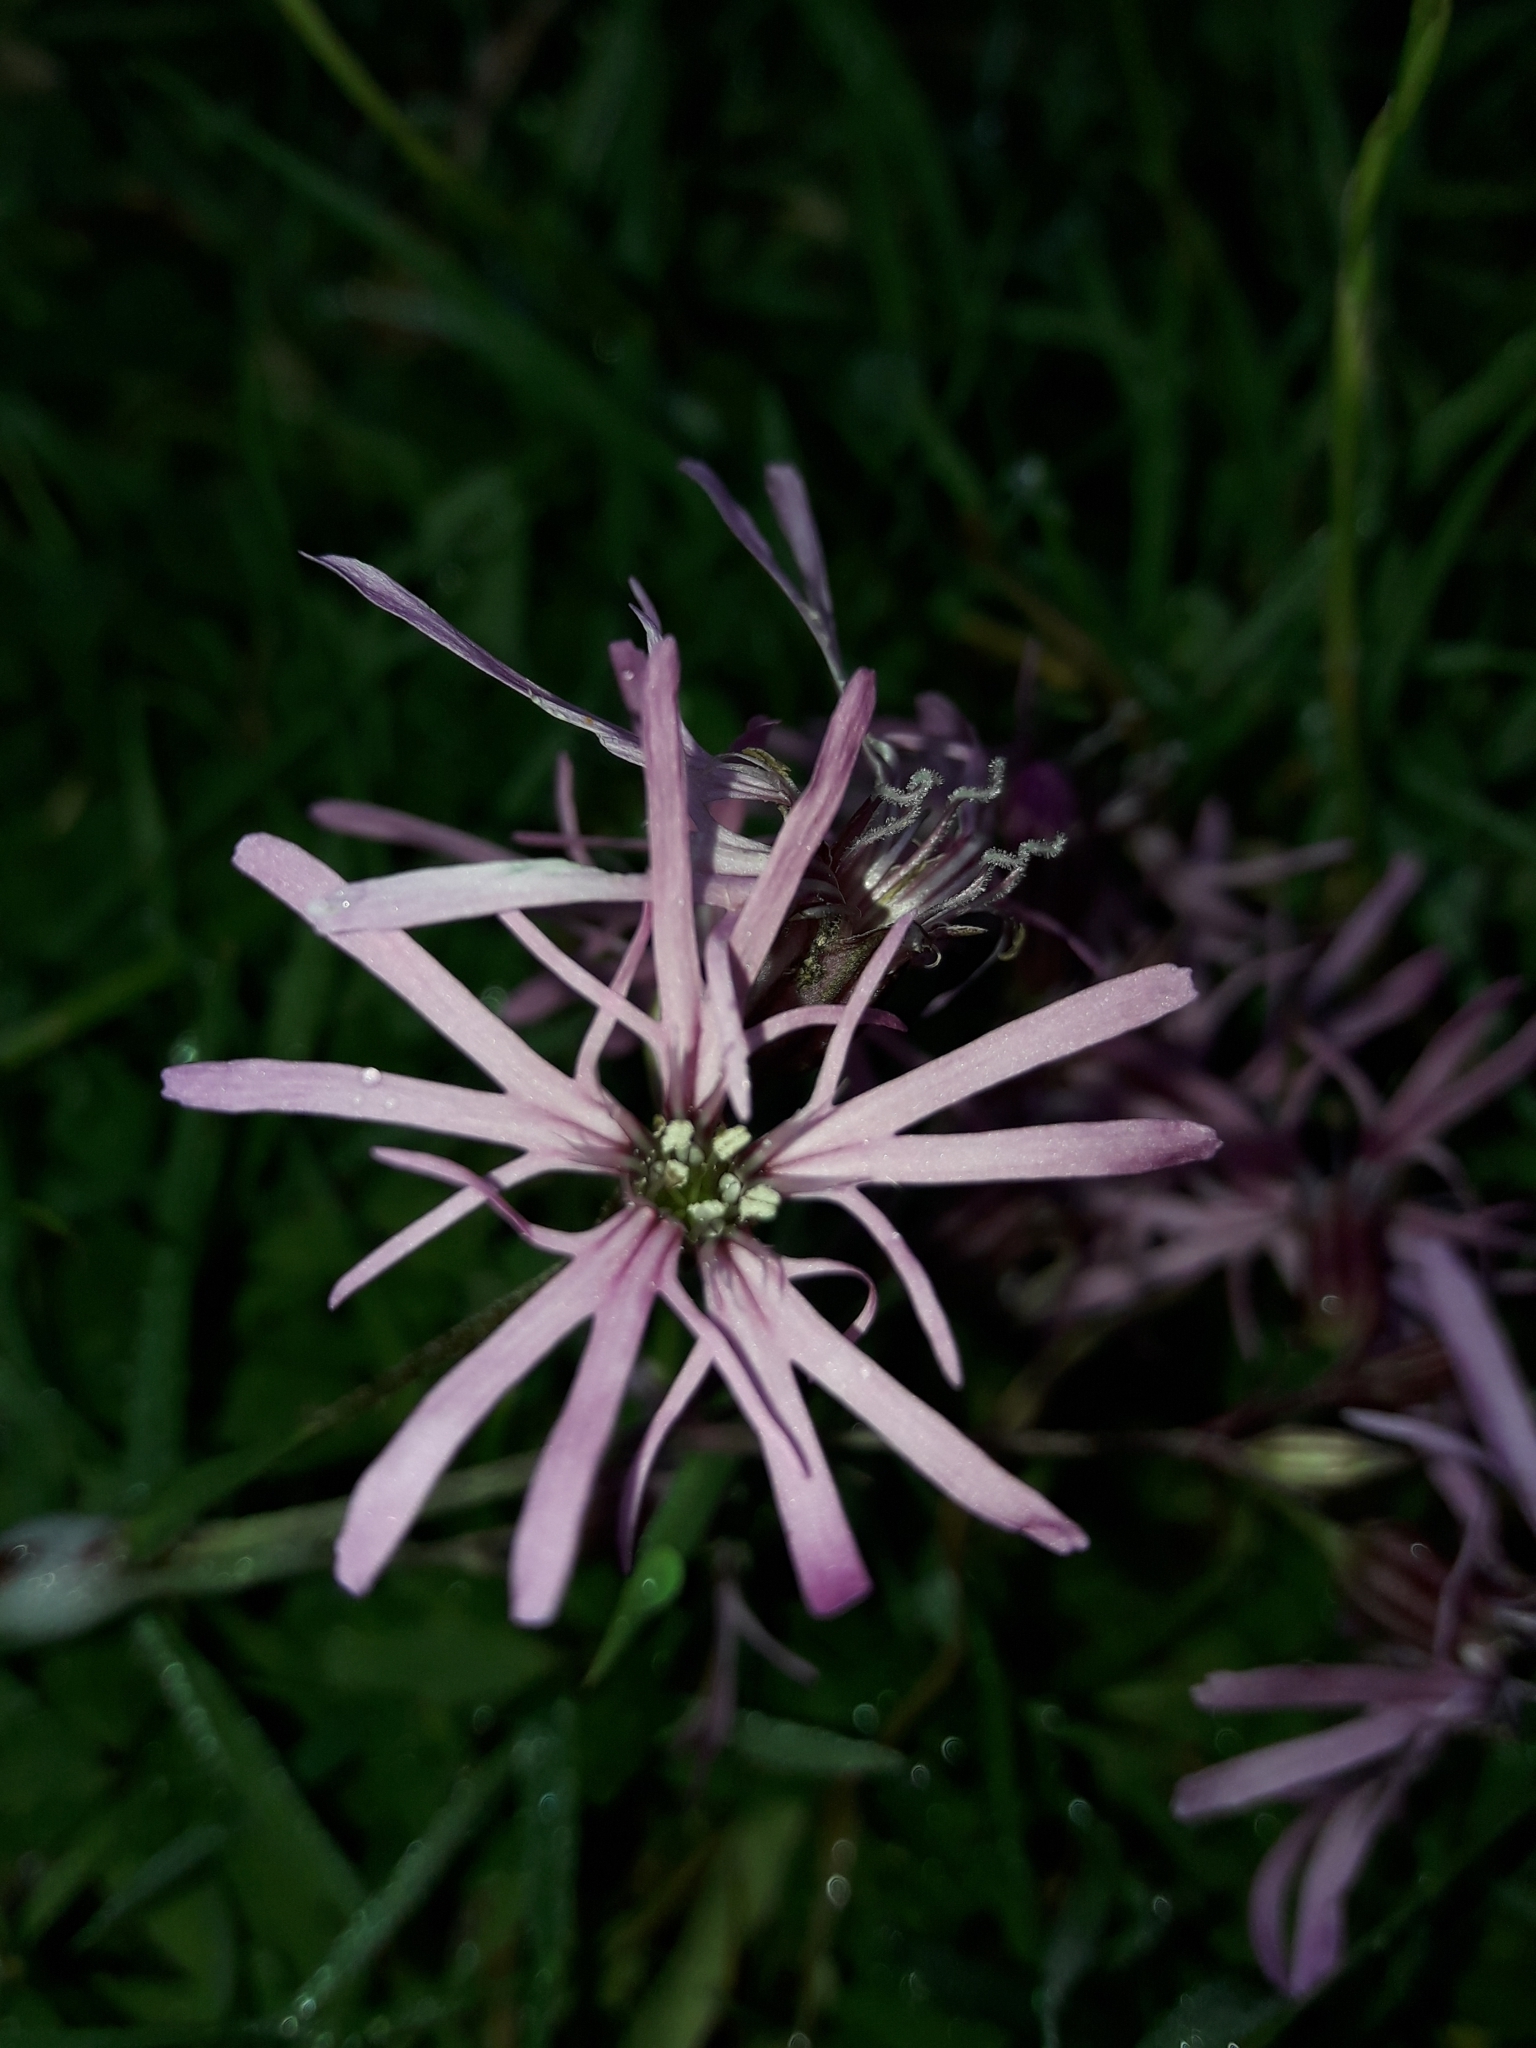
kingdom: Plantae
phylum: Tracheophyta
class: Magnoliopsida
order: Caryophyllales
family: Caryophyllaceae
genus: Silene
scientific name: Silene flos-cuculi
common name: Ragged-robin
